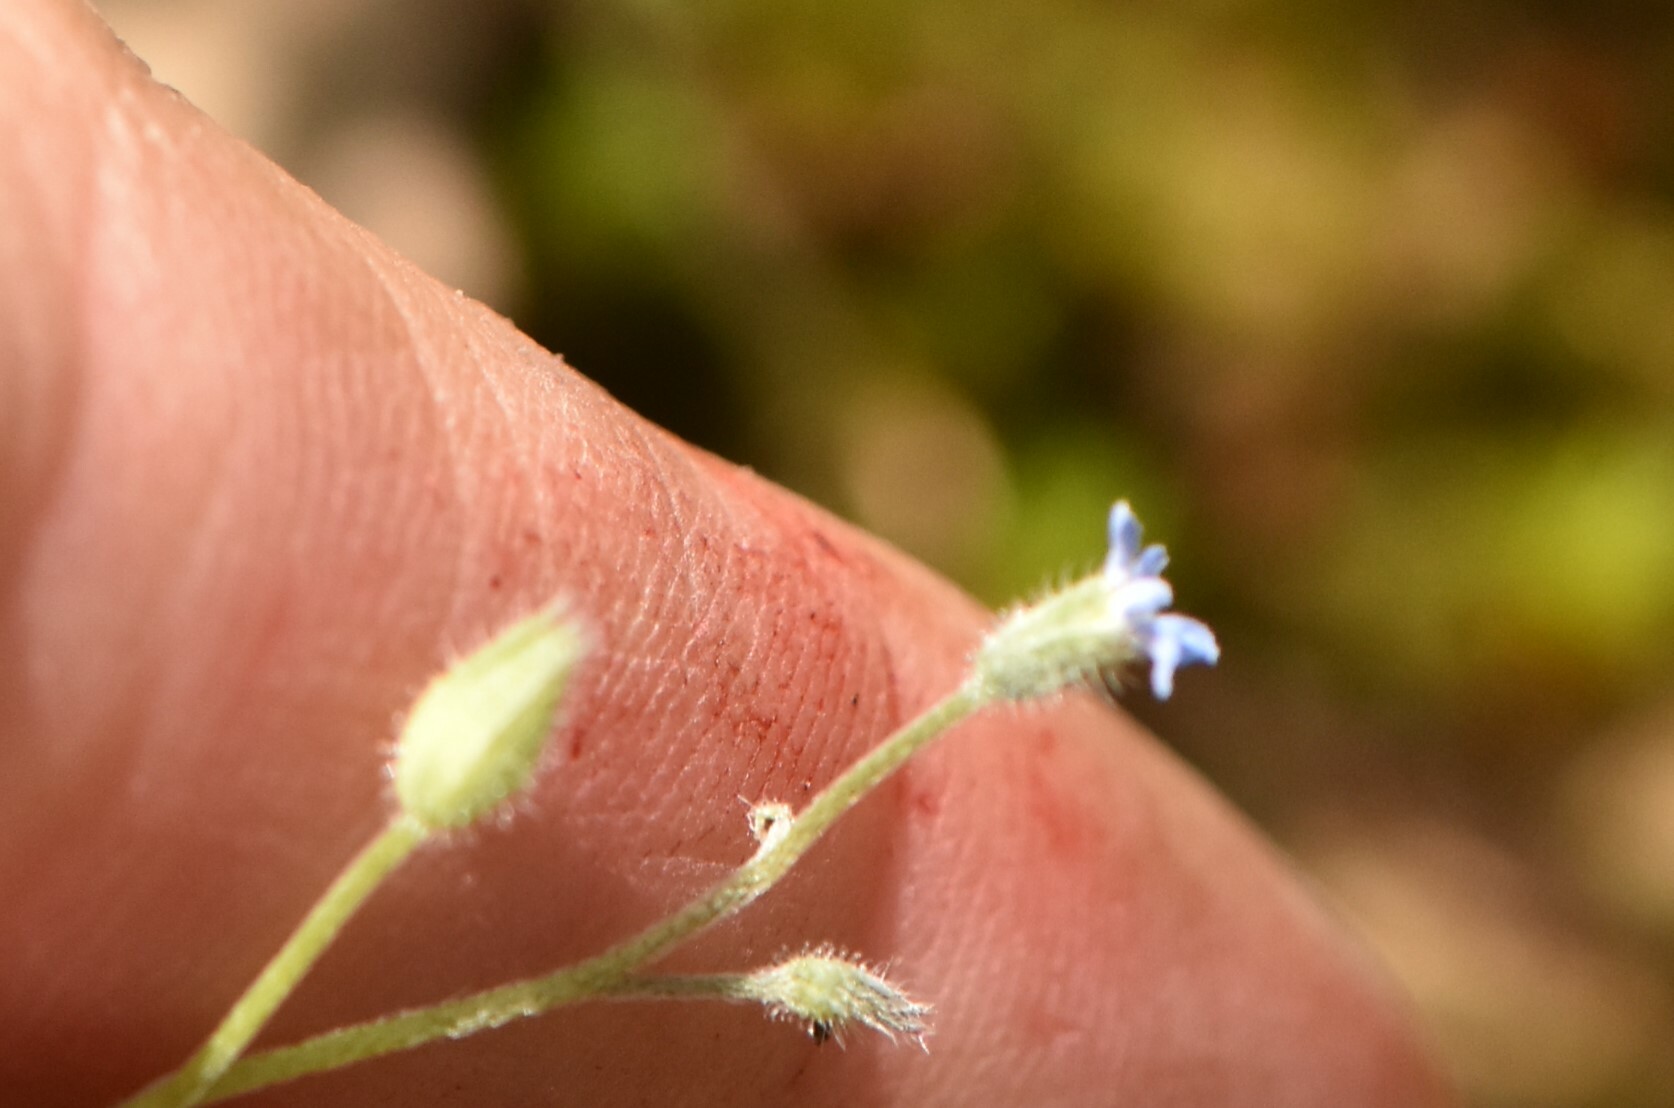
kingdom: Plantae
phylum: Tracheophyta
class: Magnoliopsida
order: Boraginales
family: Boraginaceae
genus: Myosotis
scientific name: Myosotis arvensis
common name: Field forget-me-not
